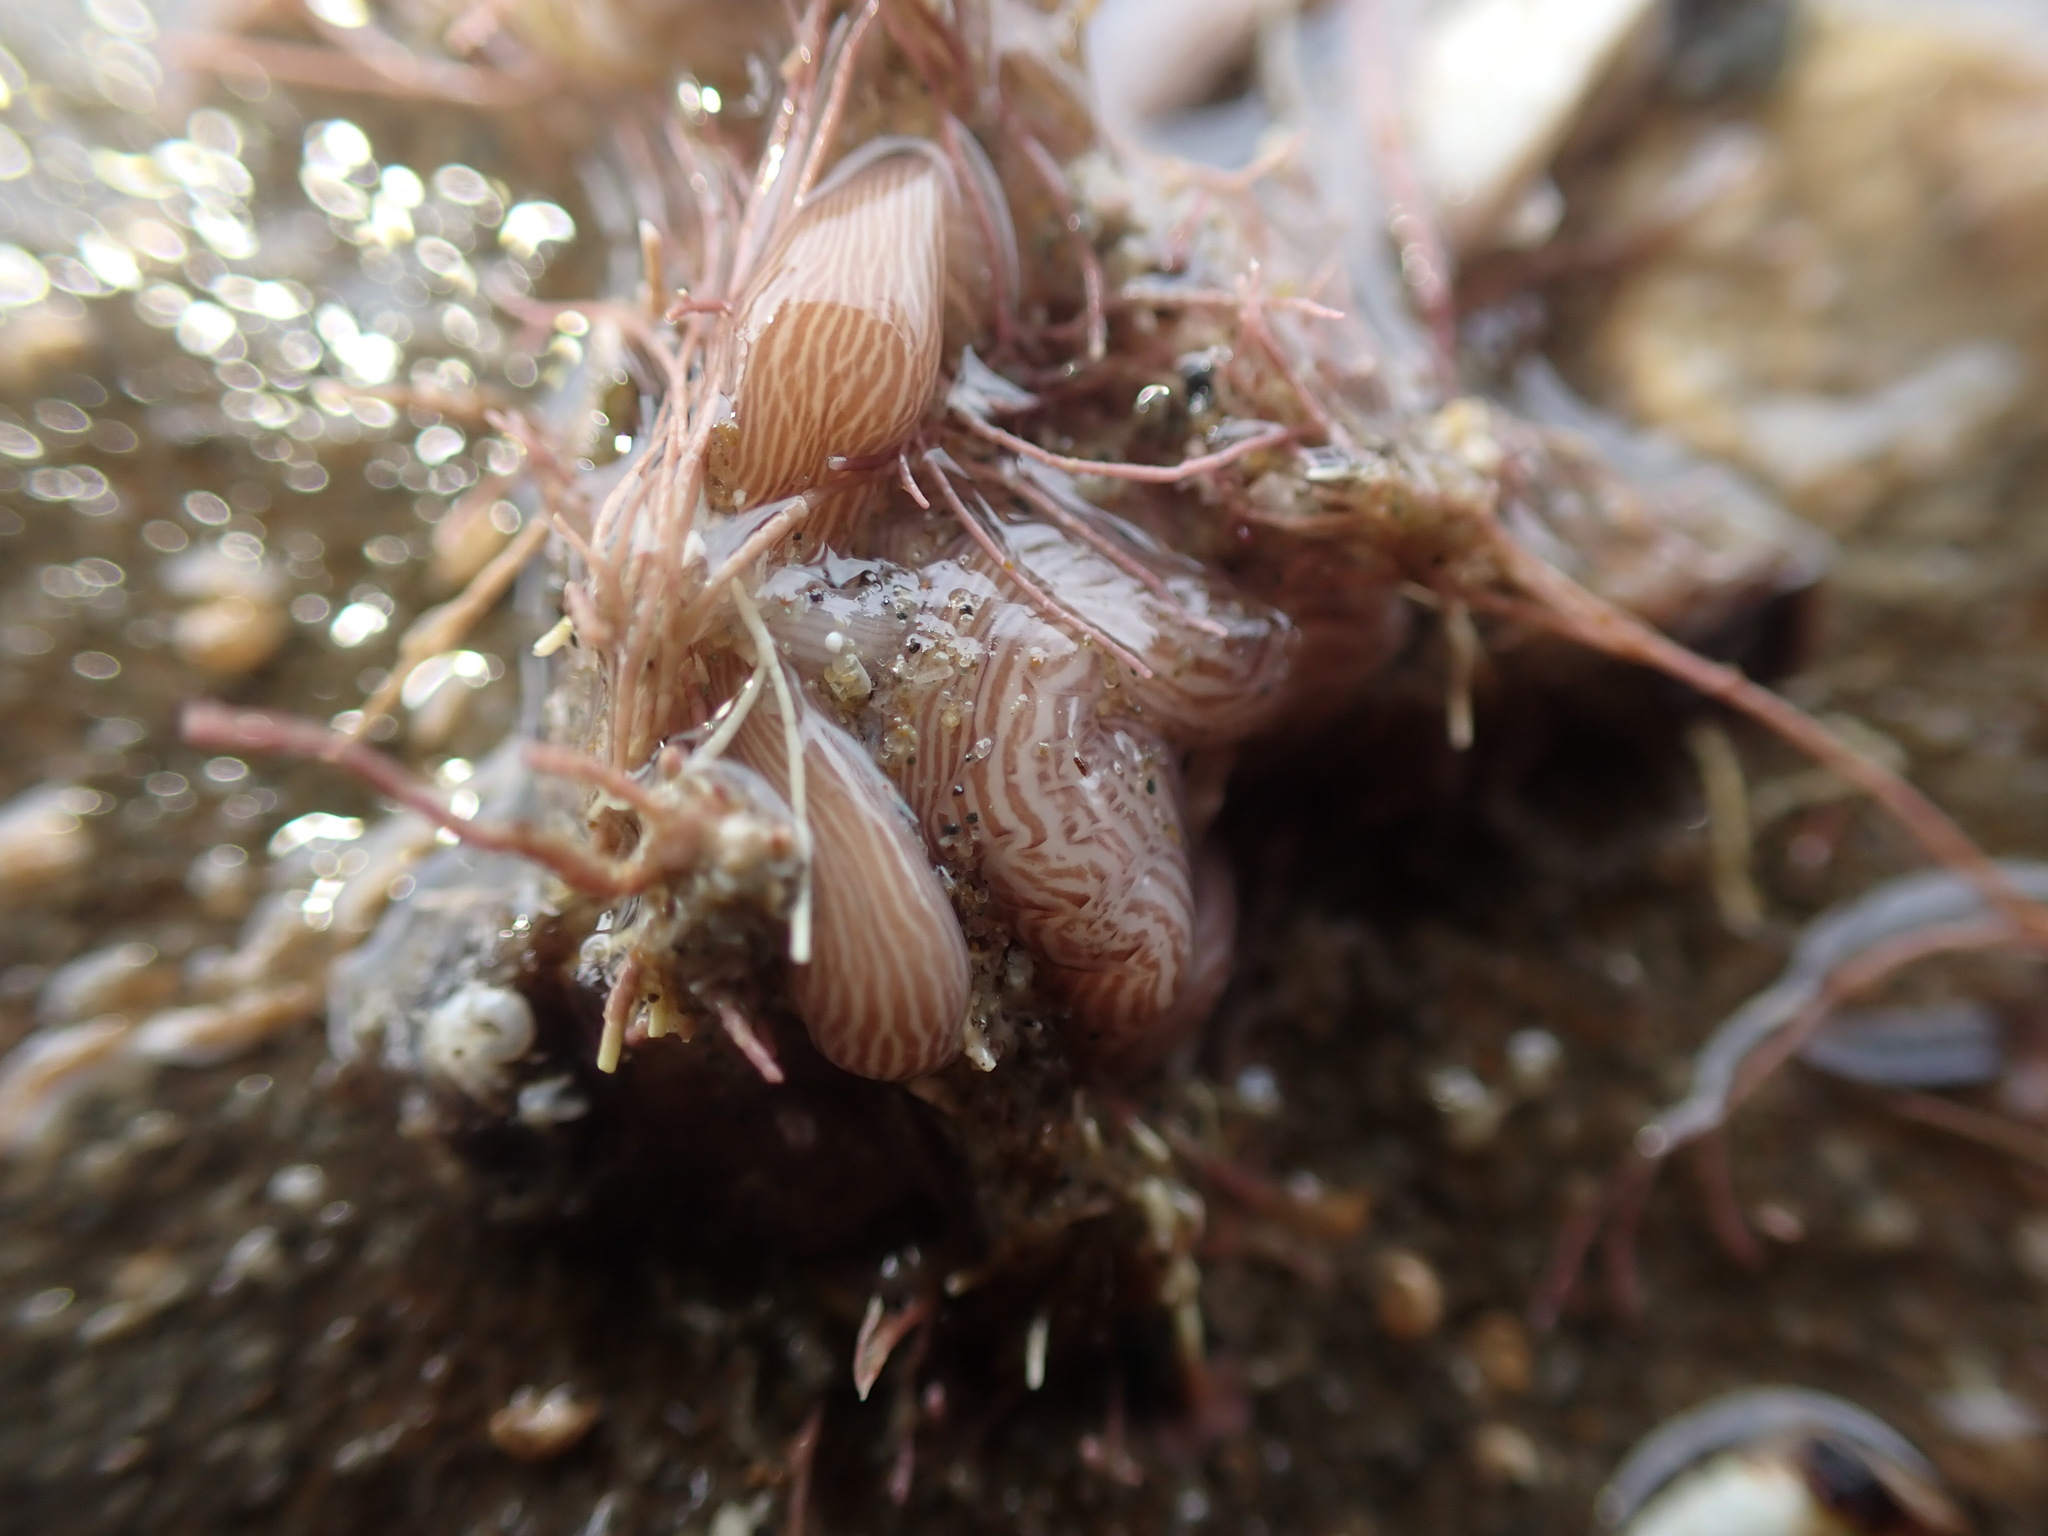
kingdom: Animalia
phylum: Nemertea
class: Pilidiophora
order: Heteronemertea
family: Valenciniidae
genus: Baseodiscus
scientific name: Baseodiscus delineatus
